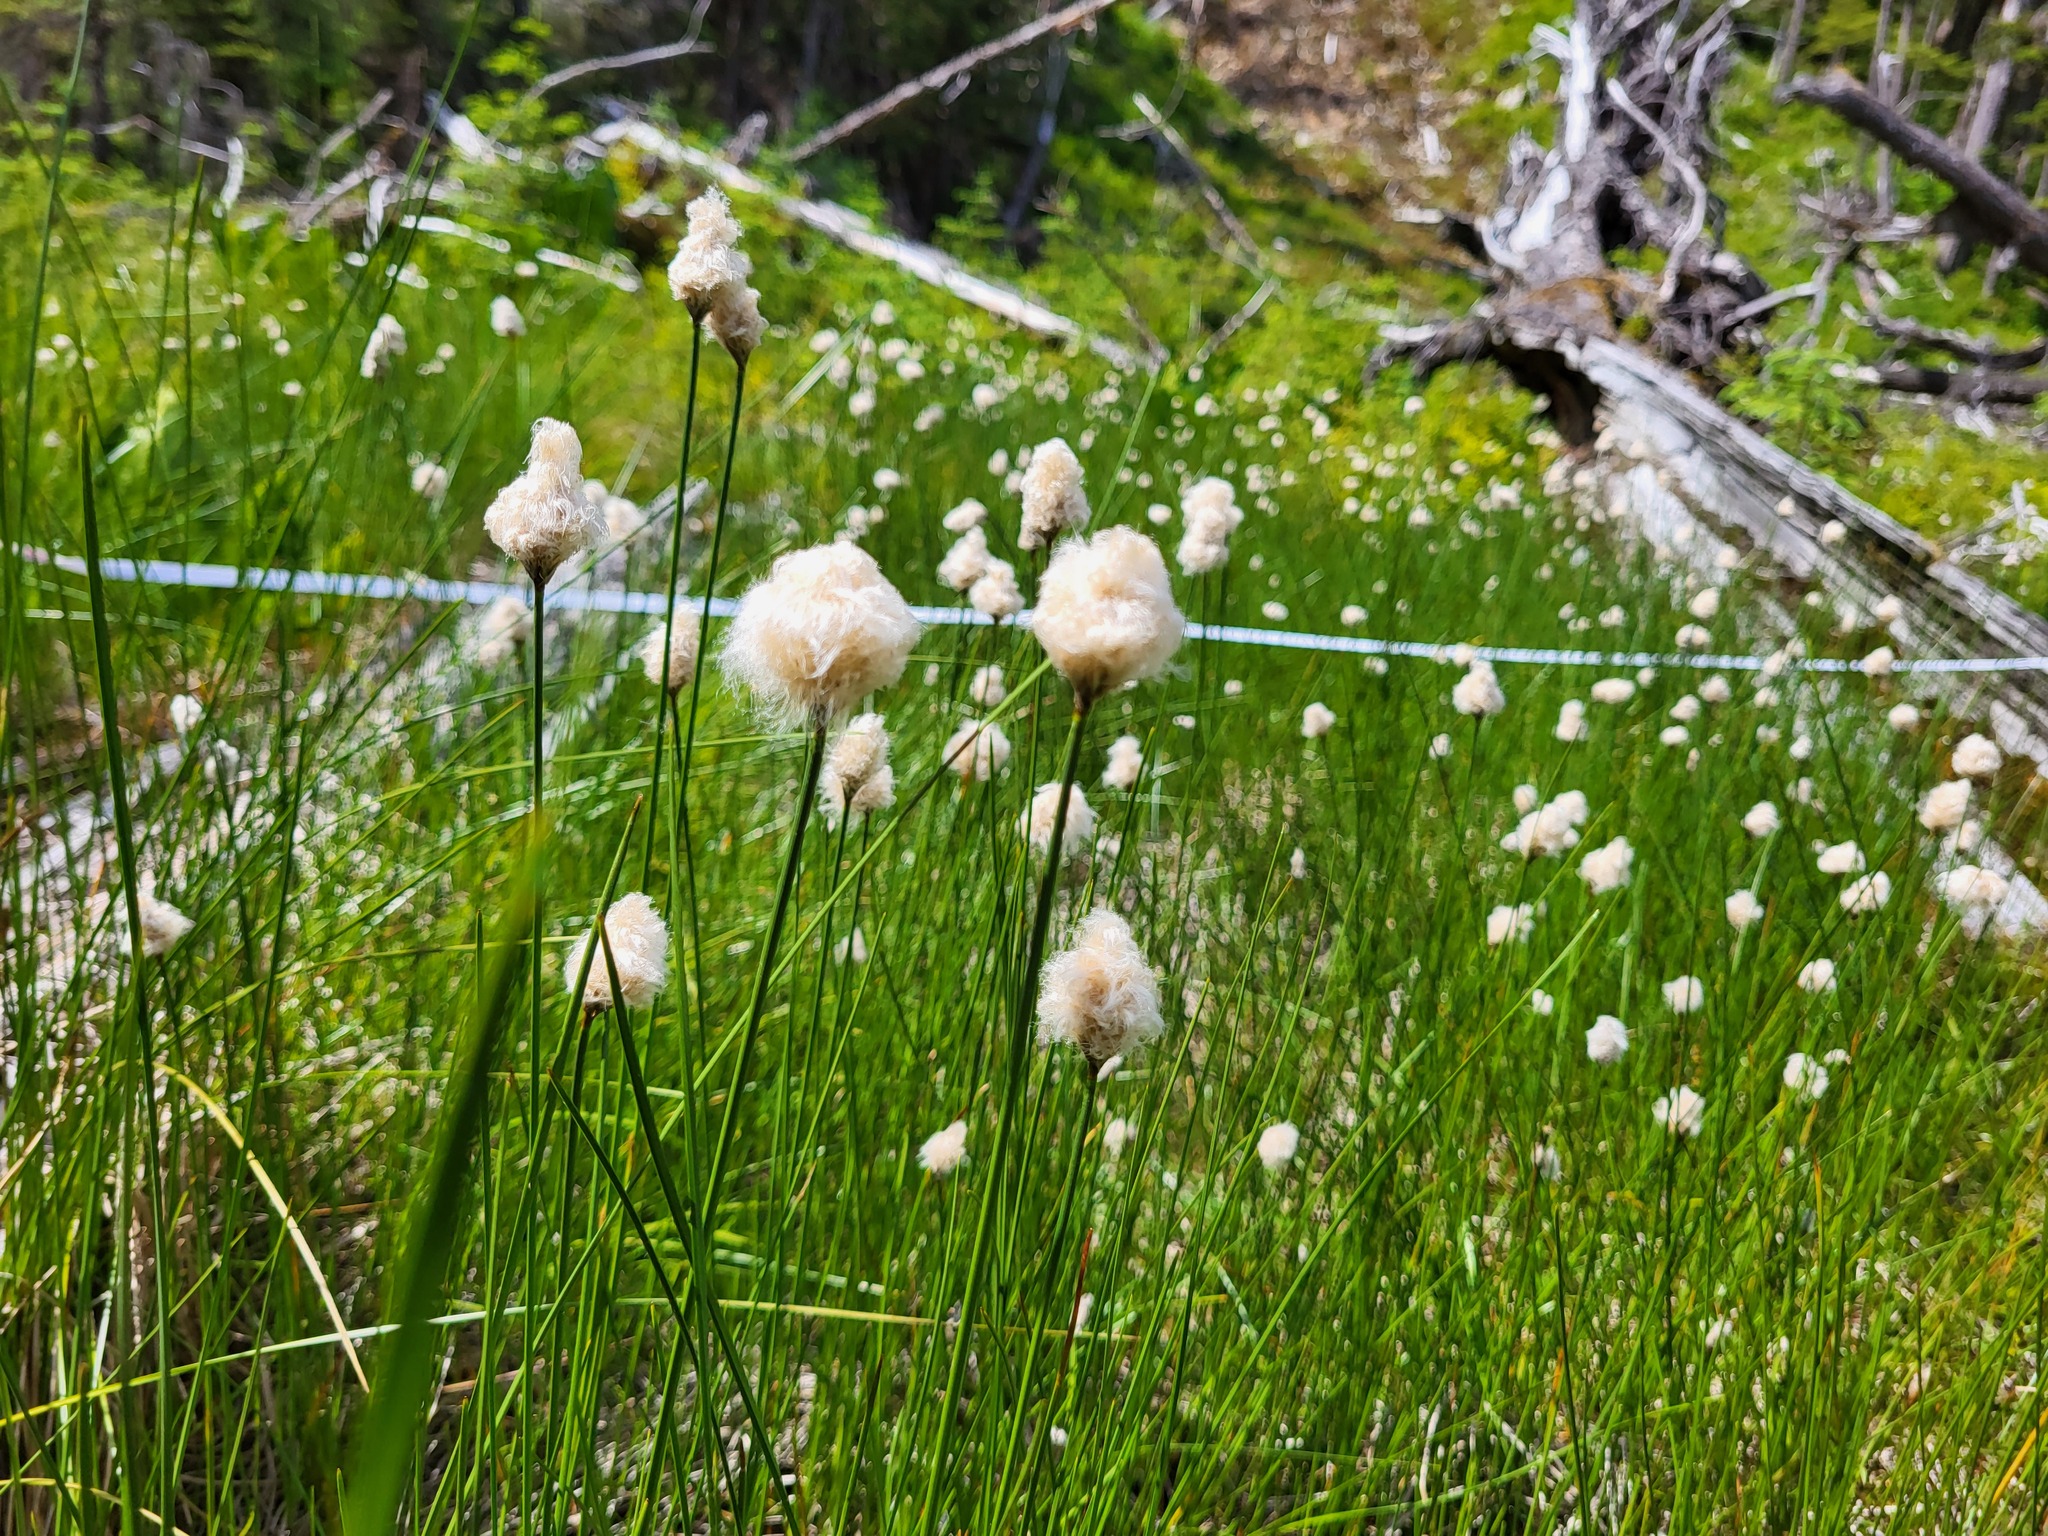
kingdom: Plantae
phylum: Tracheophyta
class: Liliopsida
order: Poales
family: Cyperaceae
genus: Eriophorum
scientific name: Eriophorum chamissonis
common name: Chamisso's cottongrass
